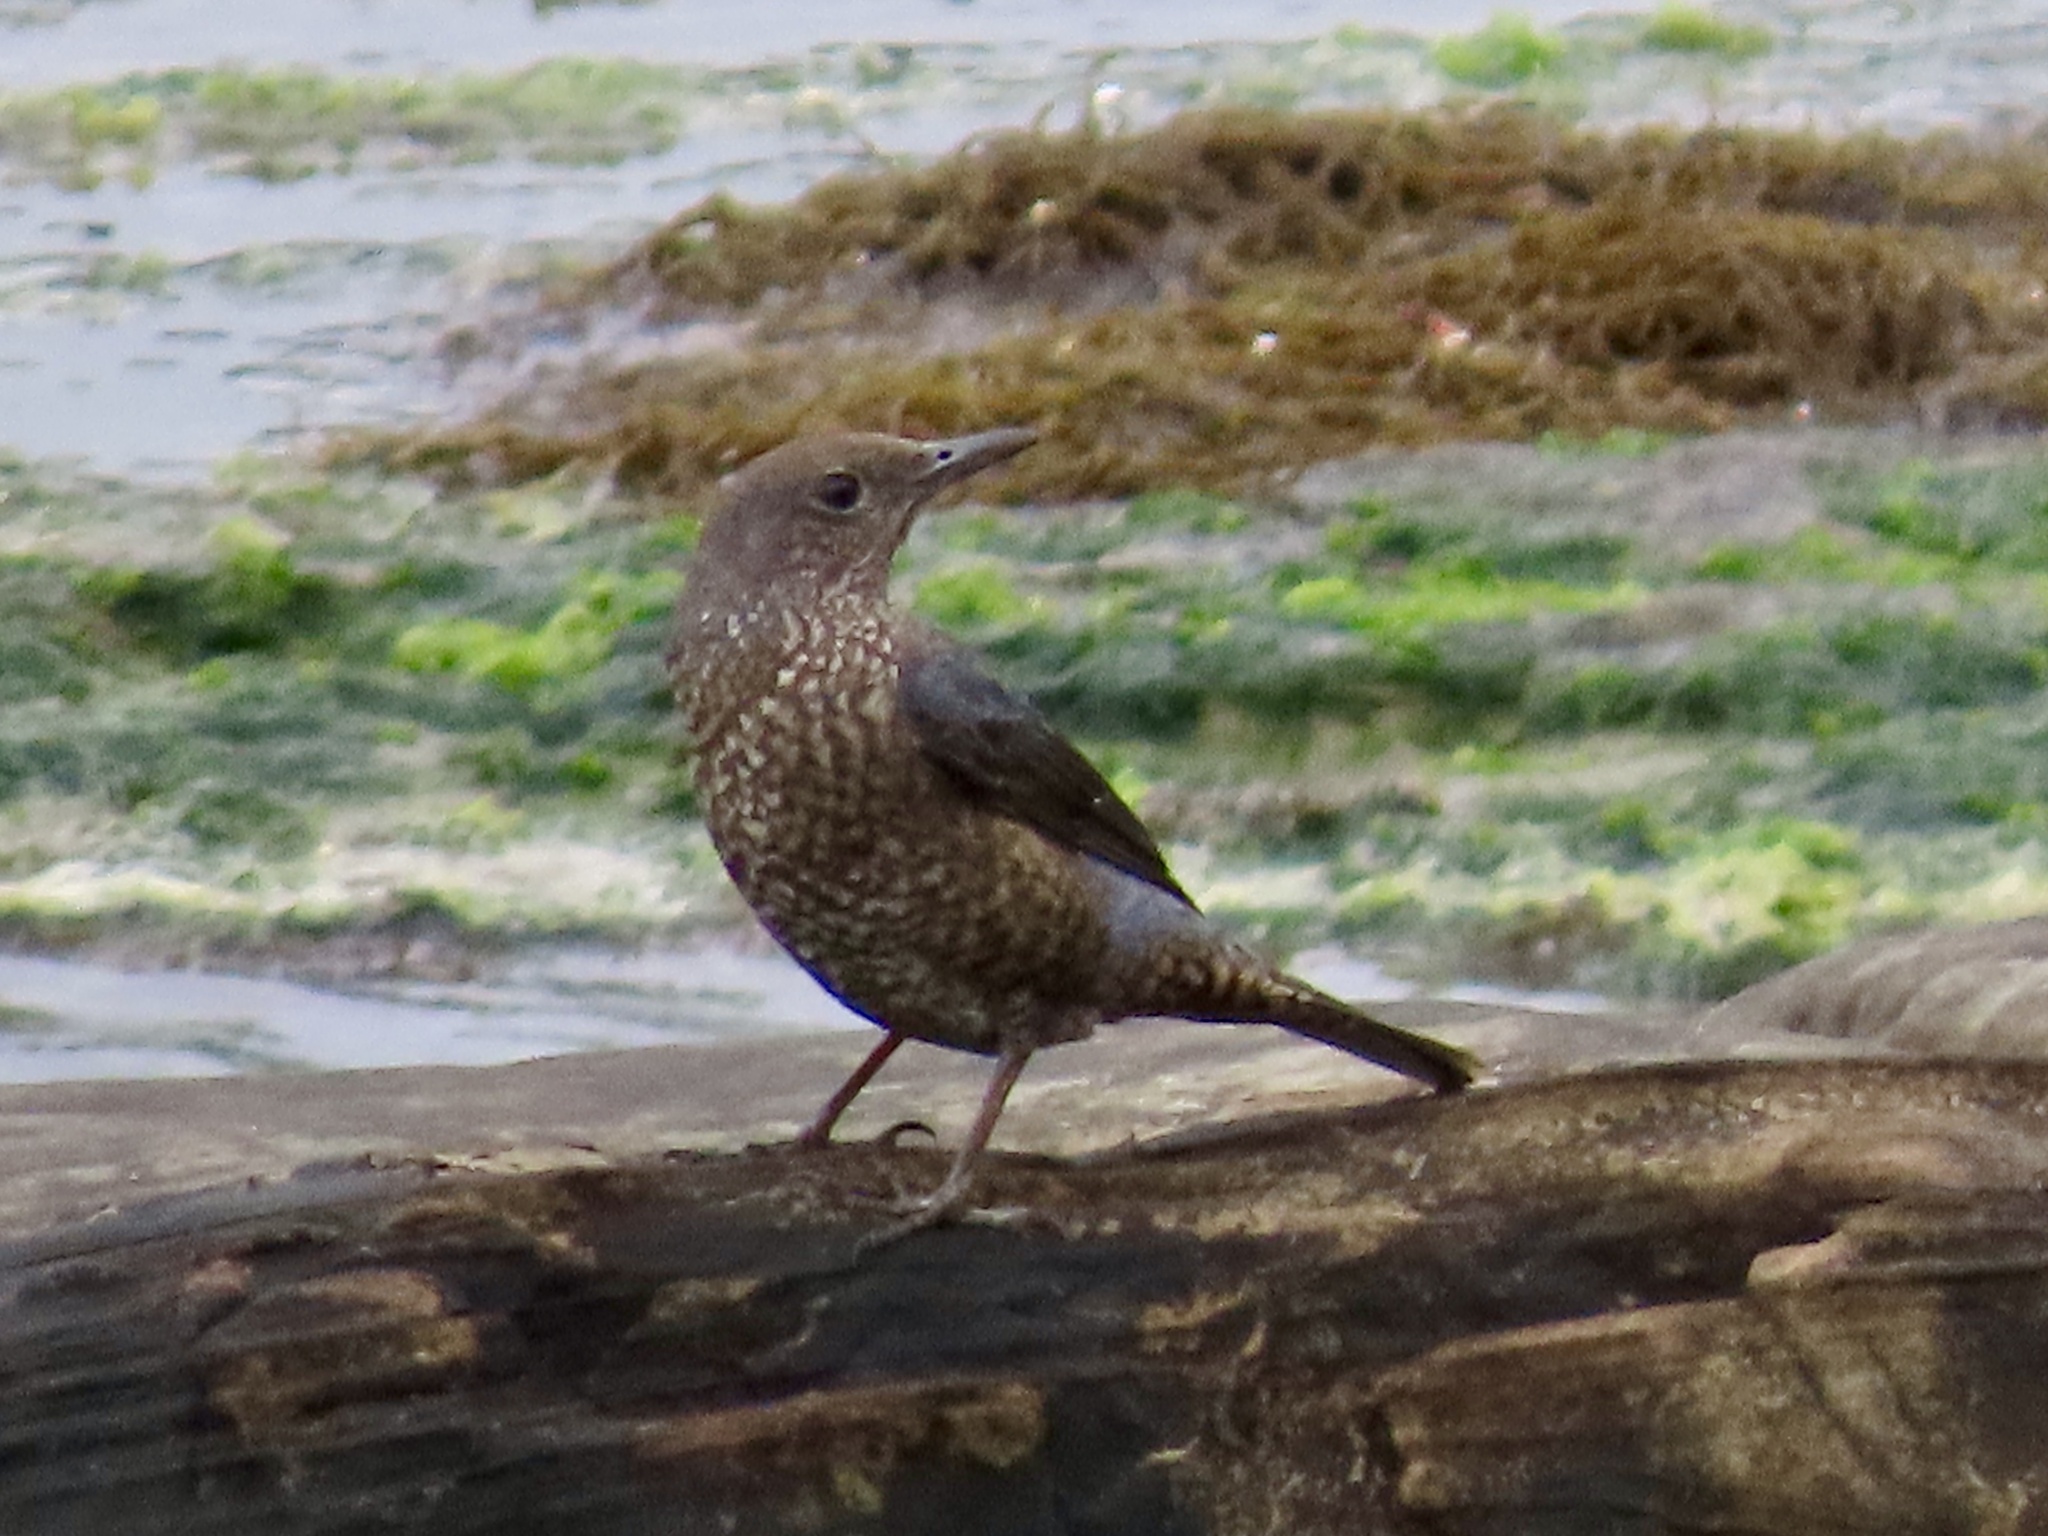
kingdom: Animalia
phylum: Chordata
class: Aves
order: Passeriformes
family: Muscicapidae
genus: Monticola
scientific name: Monticola solitarius
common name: Blue rock thrush
